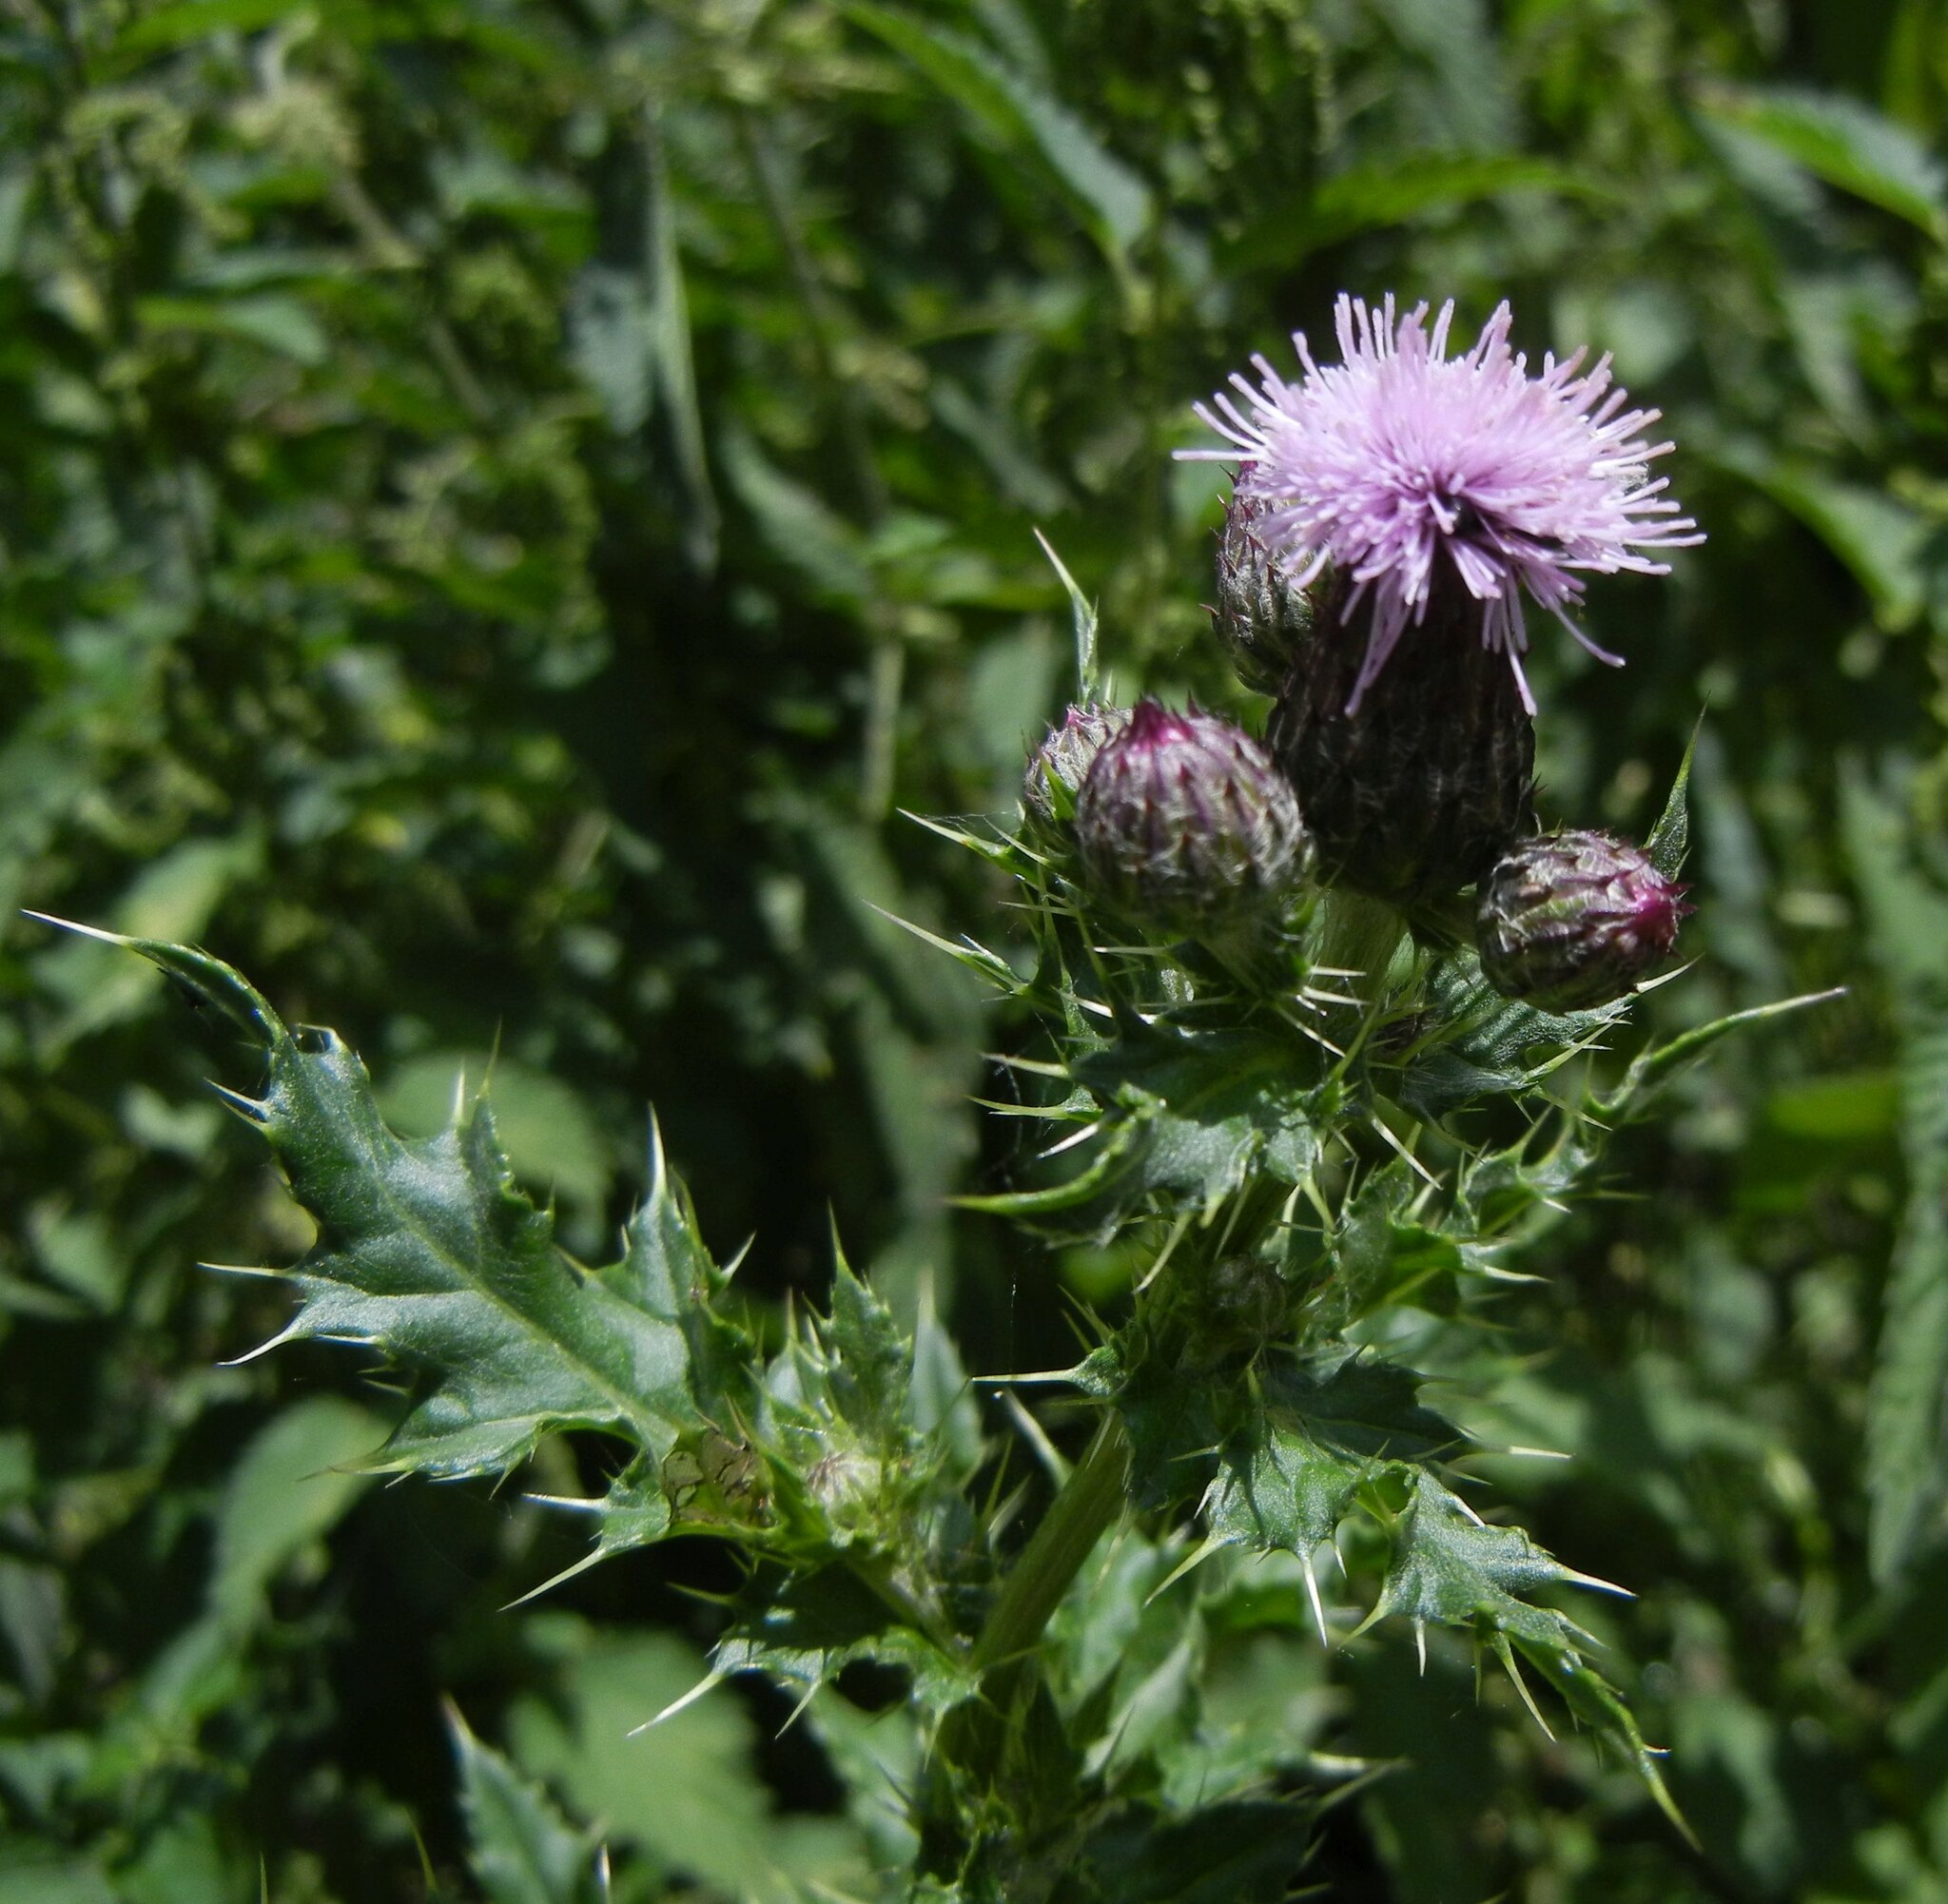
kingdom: Plantae
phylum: Tracheophyta
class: Magnoliopsida
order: Asterales
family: Asteraceae
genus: Cirsium
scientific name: Cirsium arvense
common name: Creeping thistle
